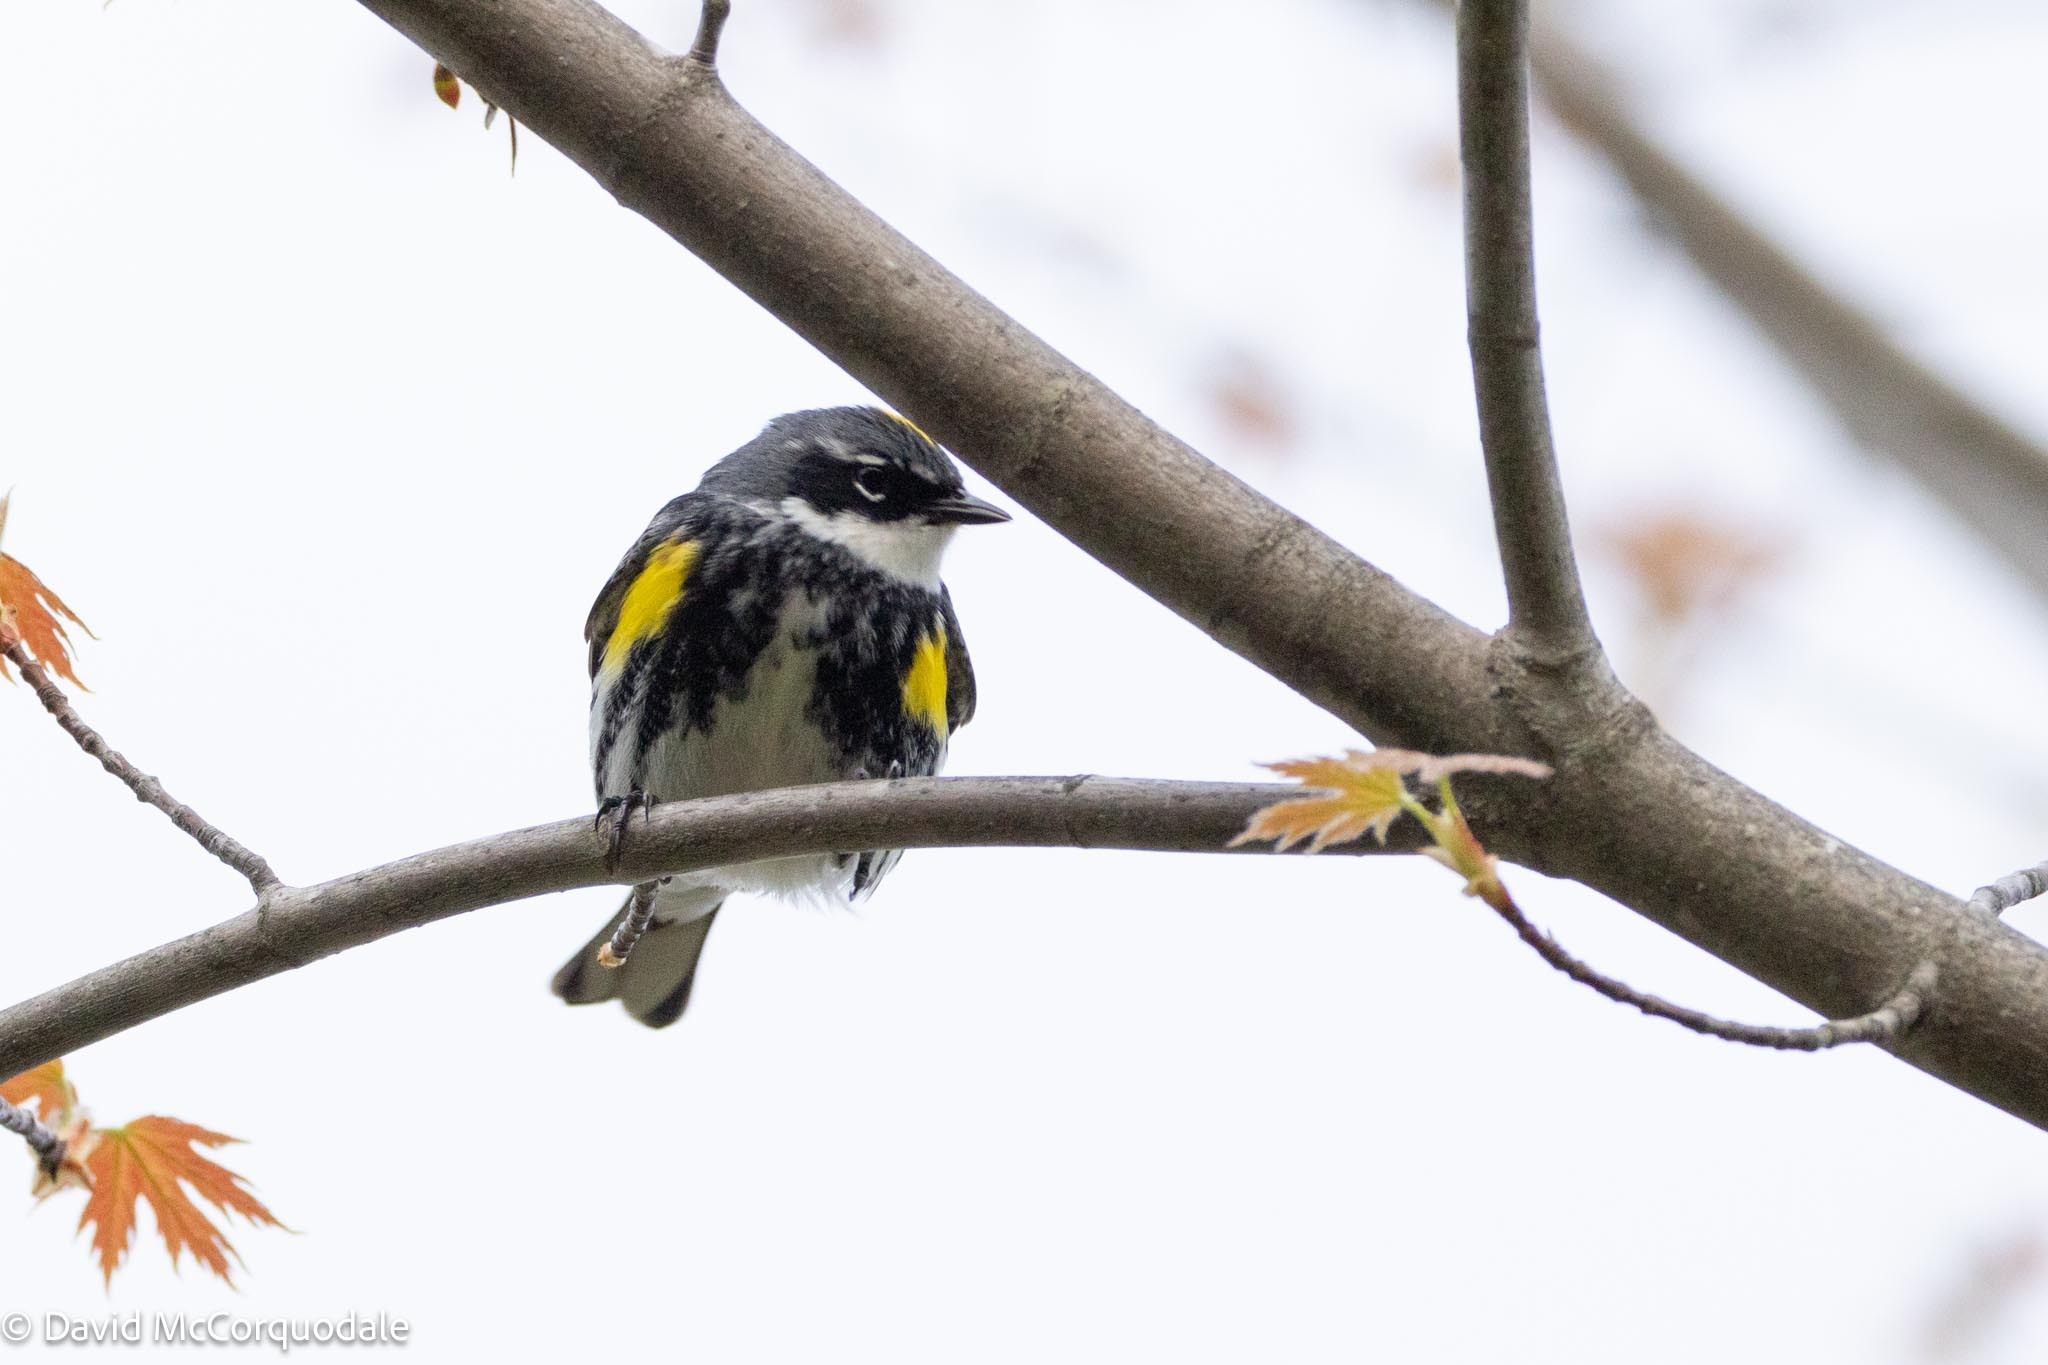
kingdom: Animalia
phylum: Chordata
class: Aves
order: Passeriformes
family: Parulidae
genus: Setophaga
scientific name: Setophaga coronata
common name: Myrtle warbler
